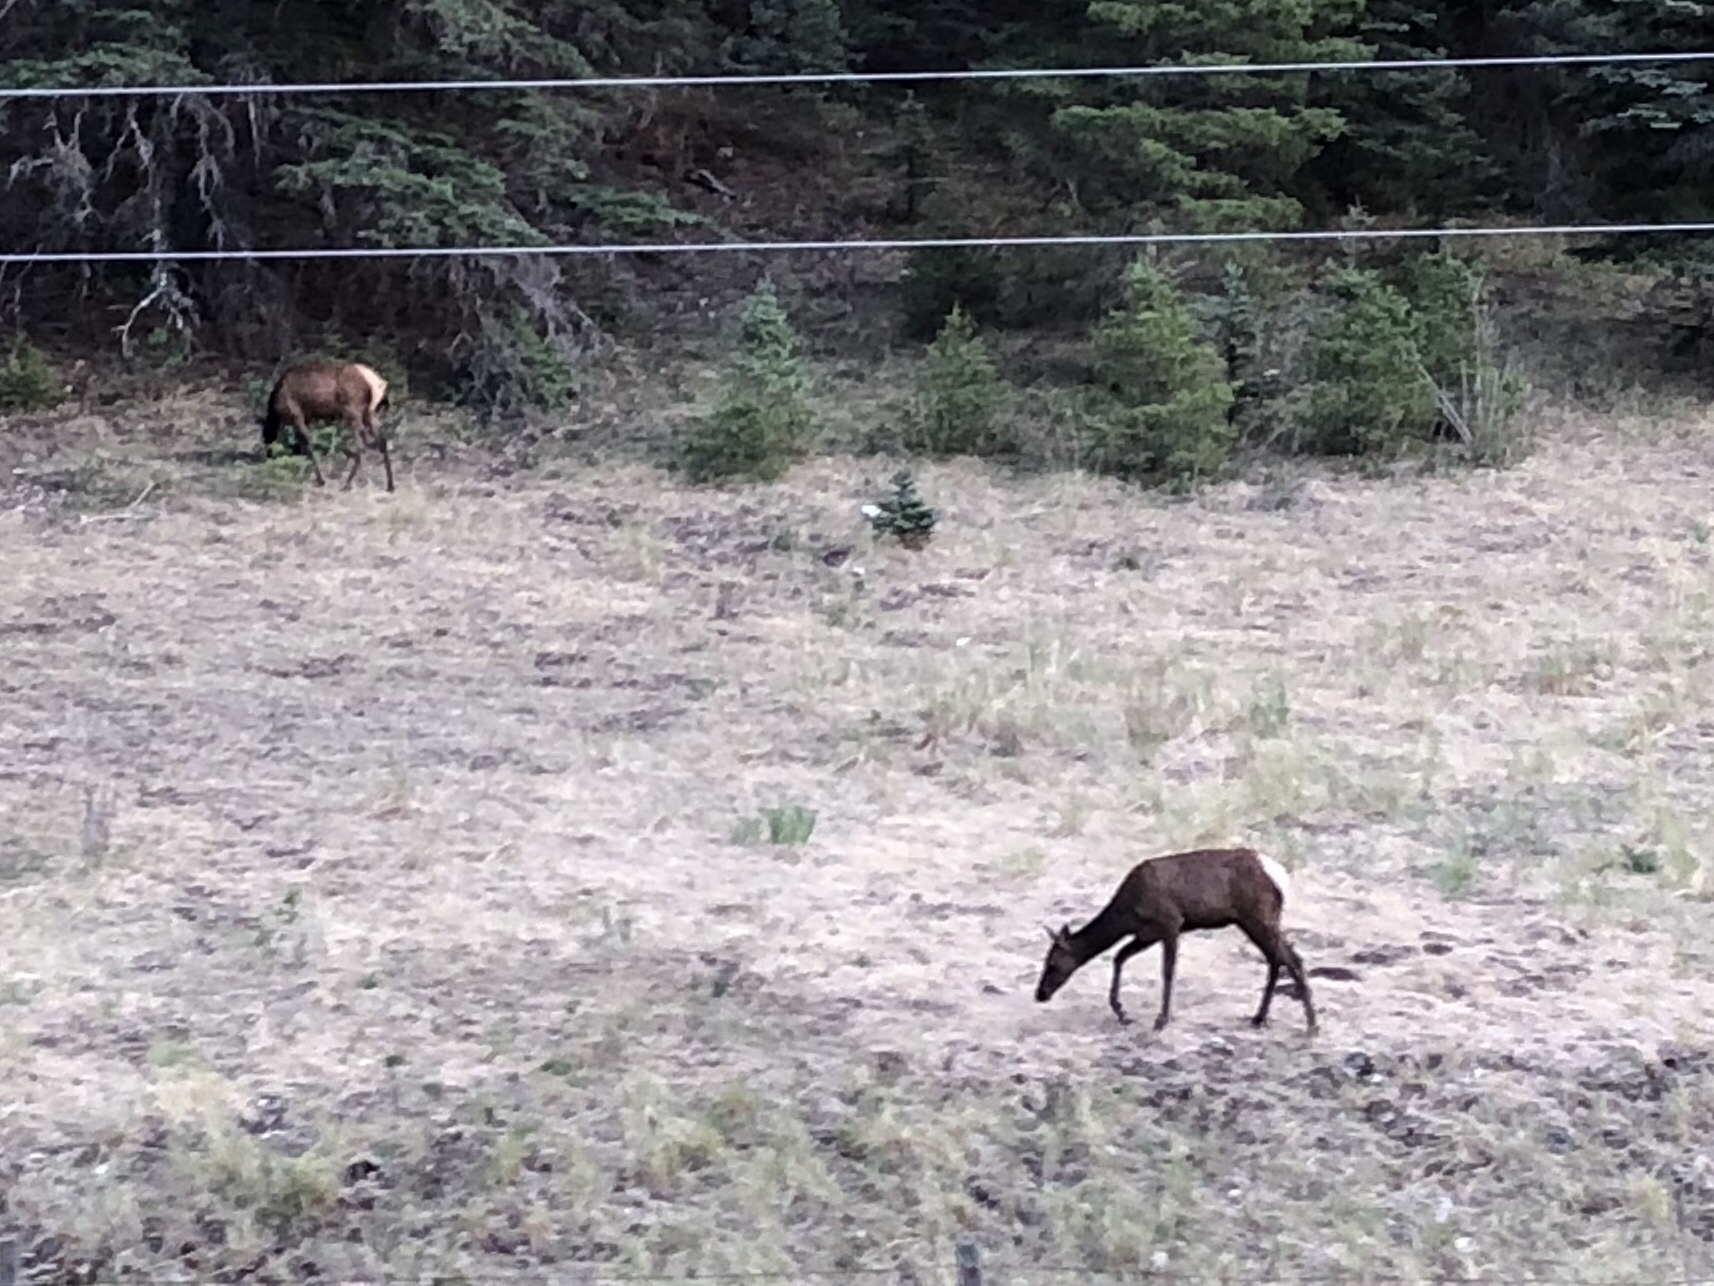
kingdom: Animalia
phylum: Chordata
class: Mammalia
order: Artiodactyla
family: Cervidae
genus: Cervus
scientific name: Cervus elaphus
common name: Red deer
